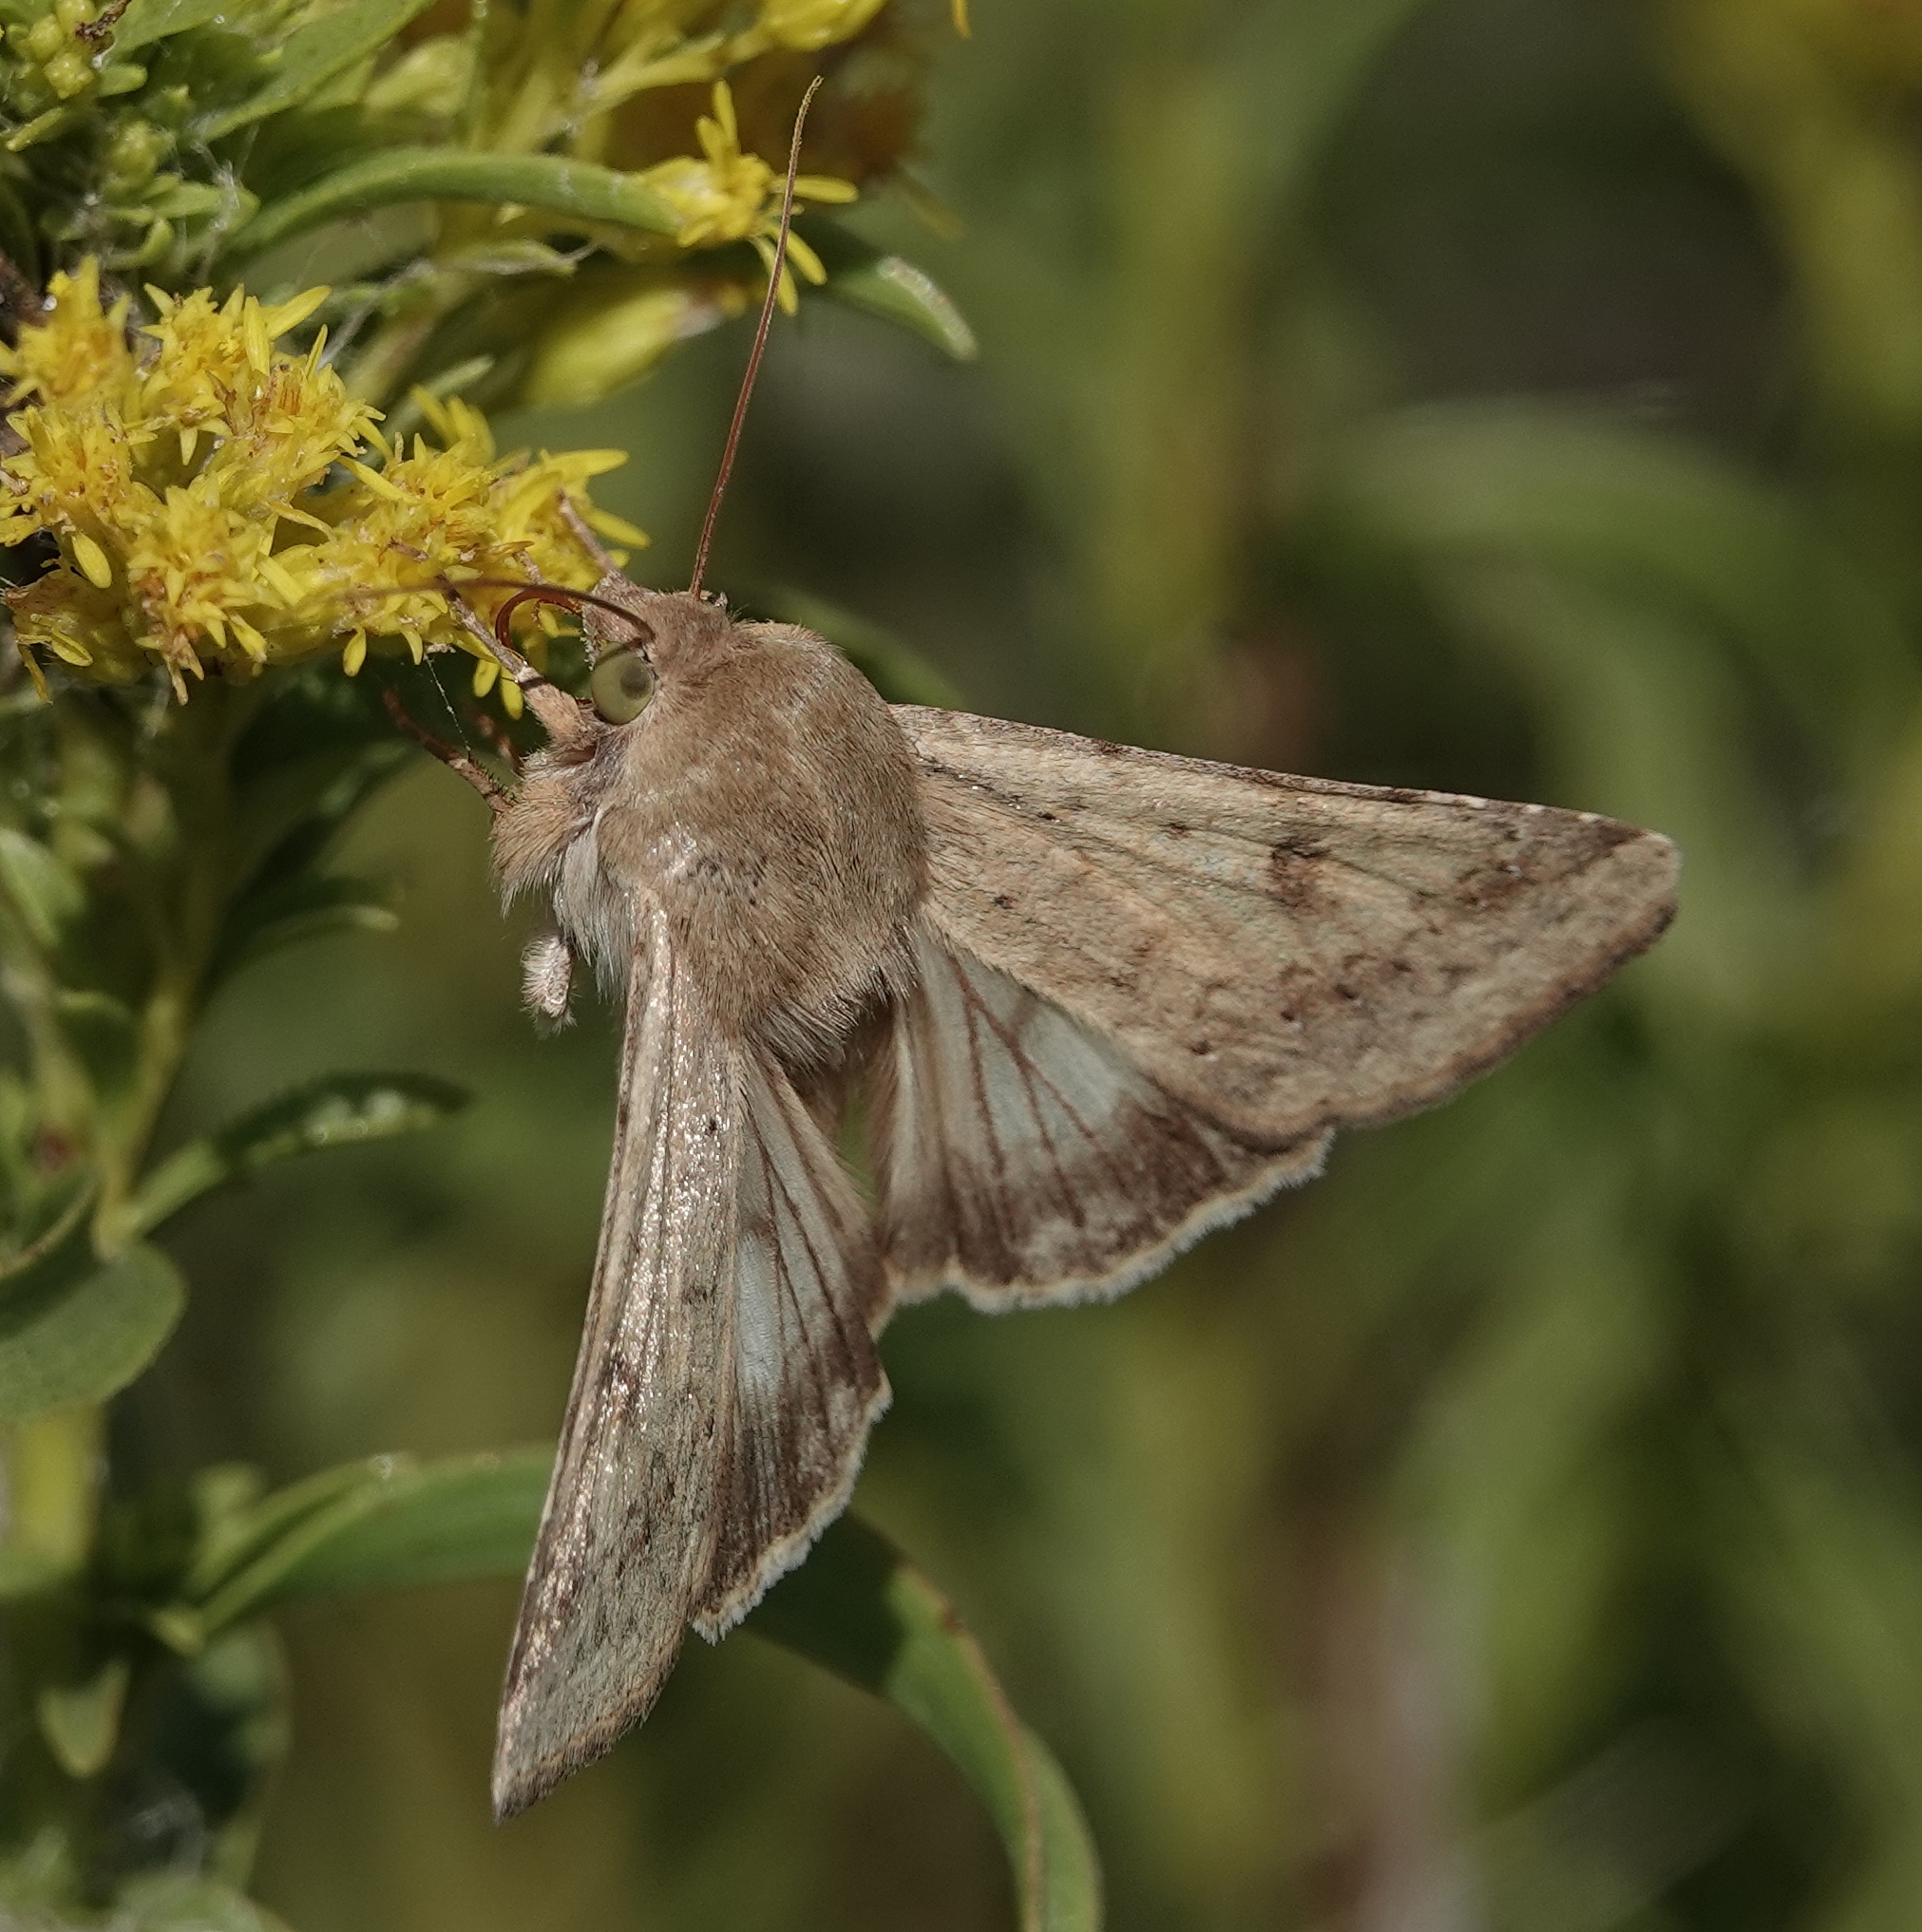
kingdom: Animalia
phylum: Arthropoda
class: Insecta
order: Lepidoptera
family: Noctuidae
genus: Helicoverpa
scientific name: Helicoverpa zea
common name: Bollworm
